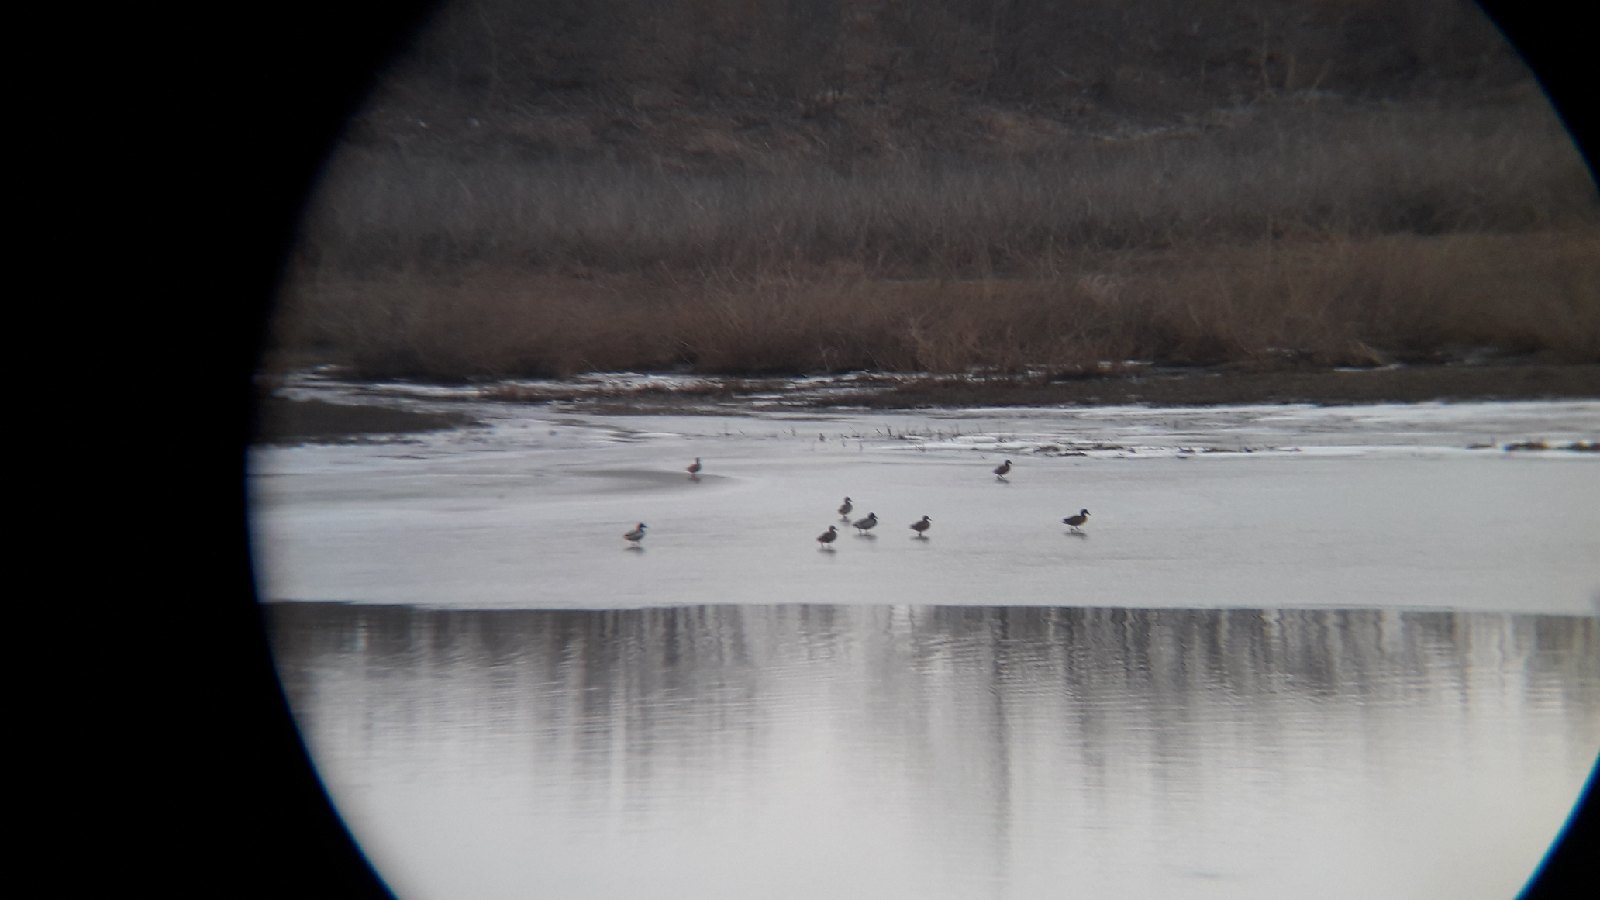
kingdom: Animalia
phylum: Chordata
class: Aves
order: Anseriformes
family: Anatidae
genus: Anas
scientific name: Anas platyrhynchos
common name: Mallard
